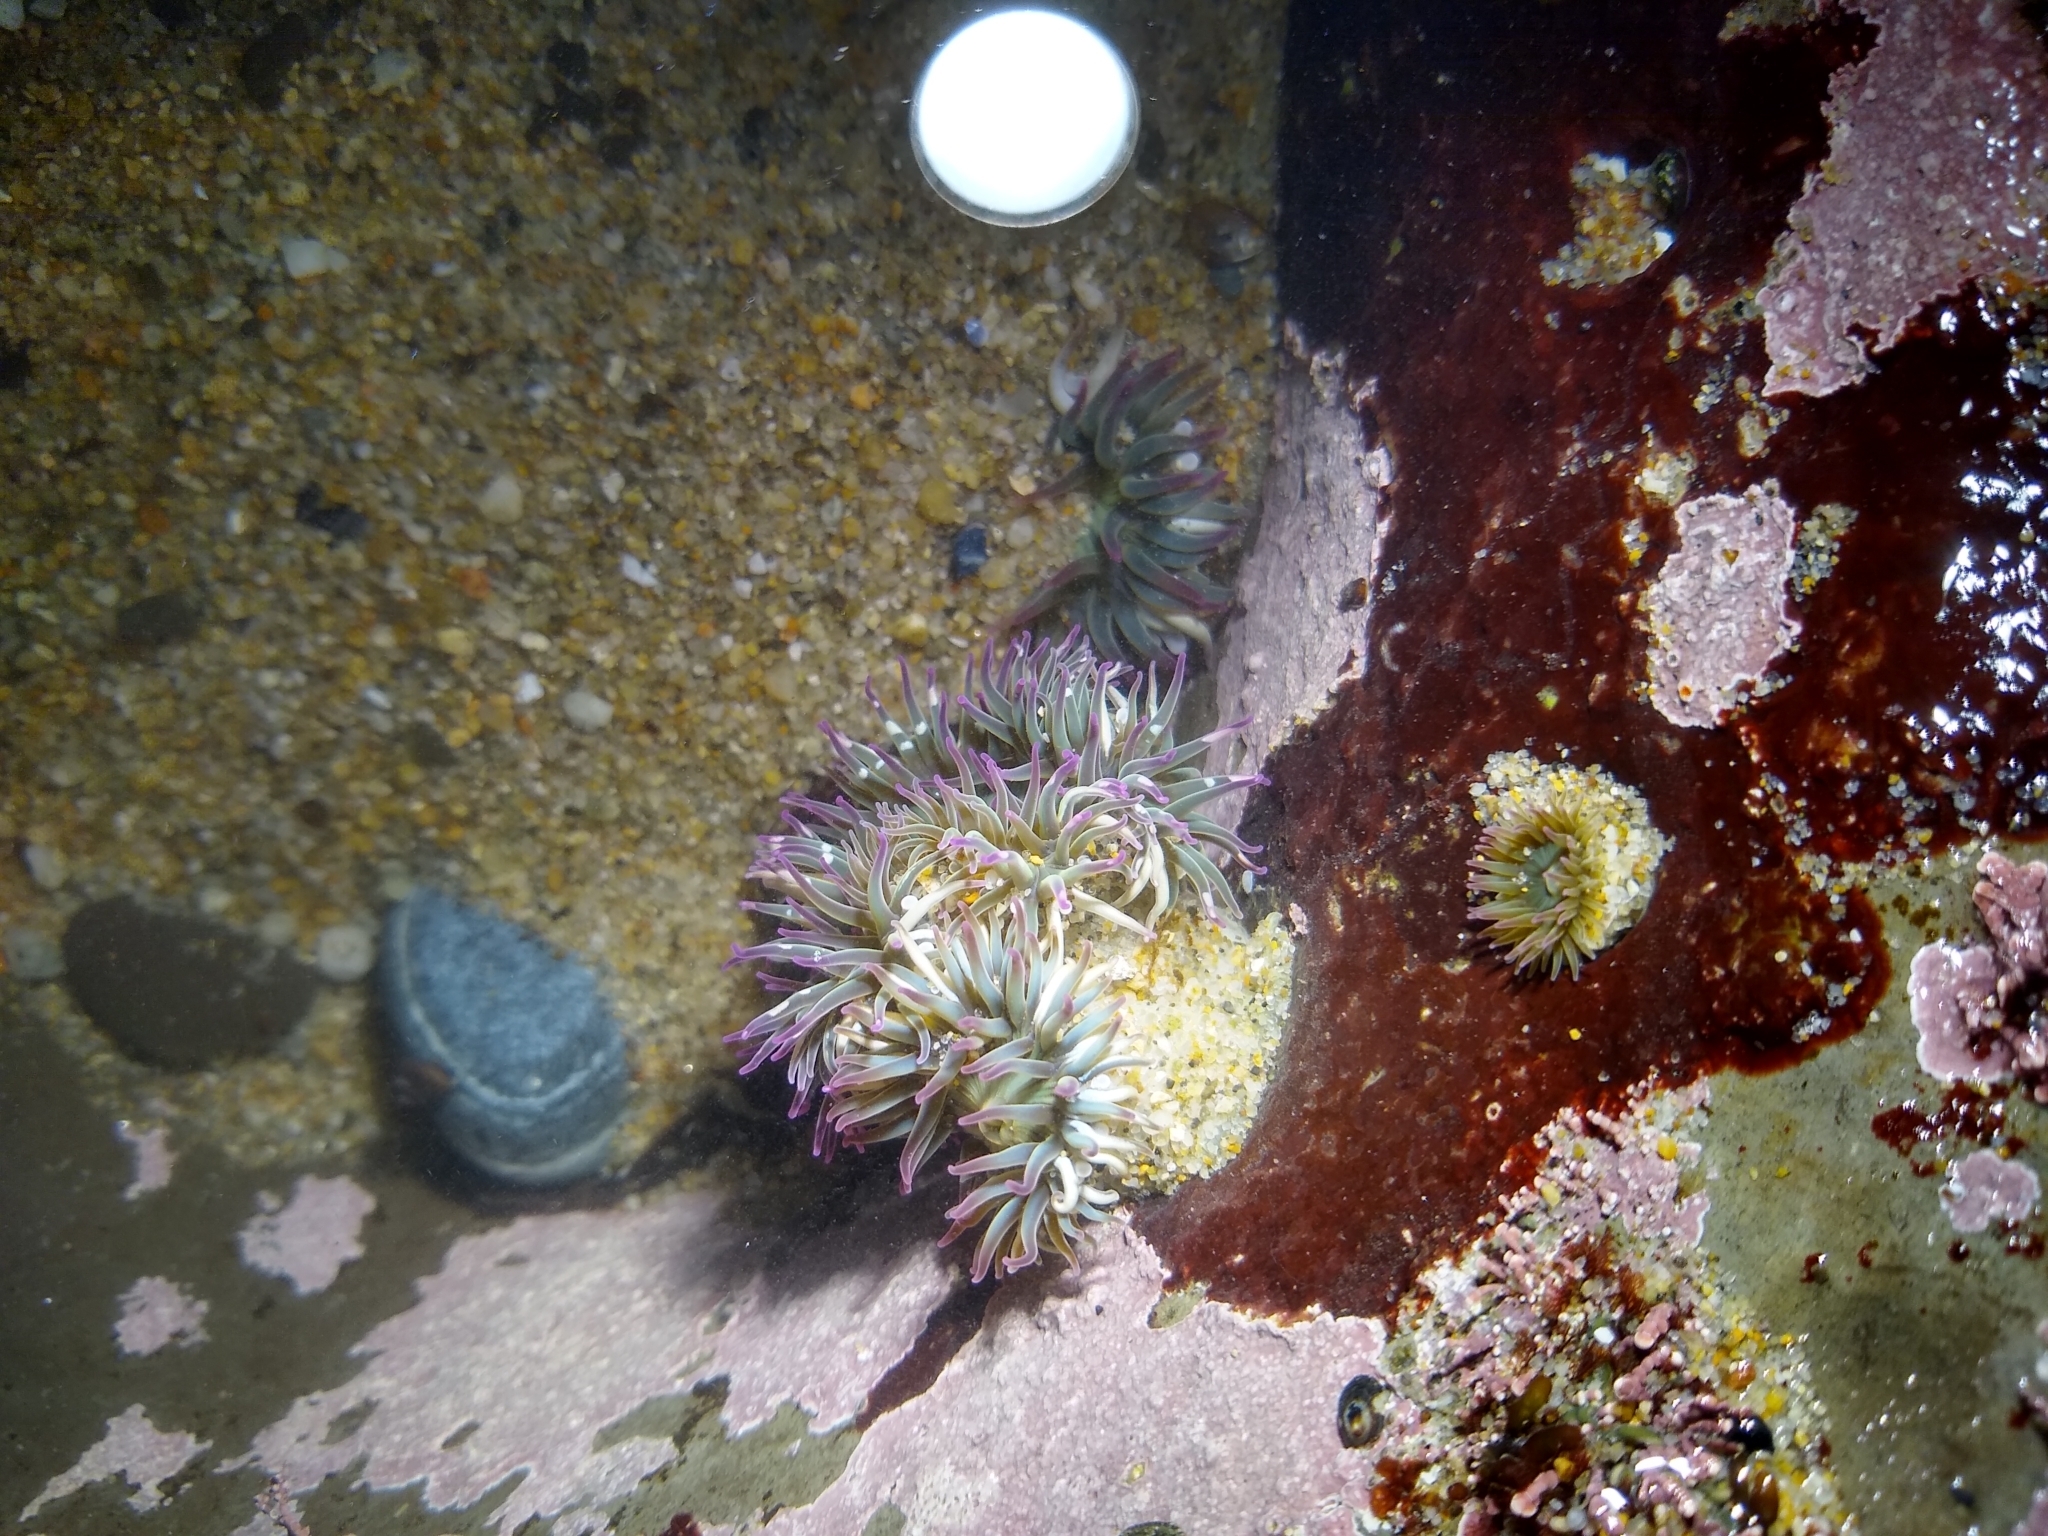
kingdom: Animalia
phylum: Cnidaria
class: Anthozoa
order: Actiniaria
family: Actiniidae
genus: Anthopleura
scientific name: Anthopleura elegantissima
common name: Clonal anemone
